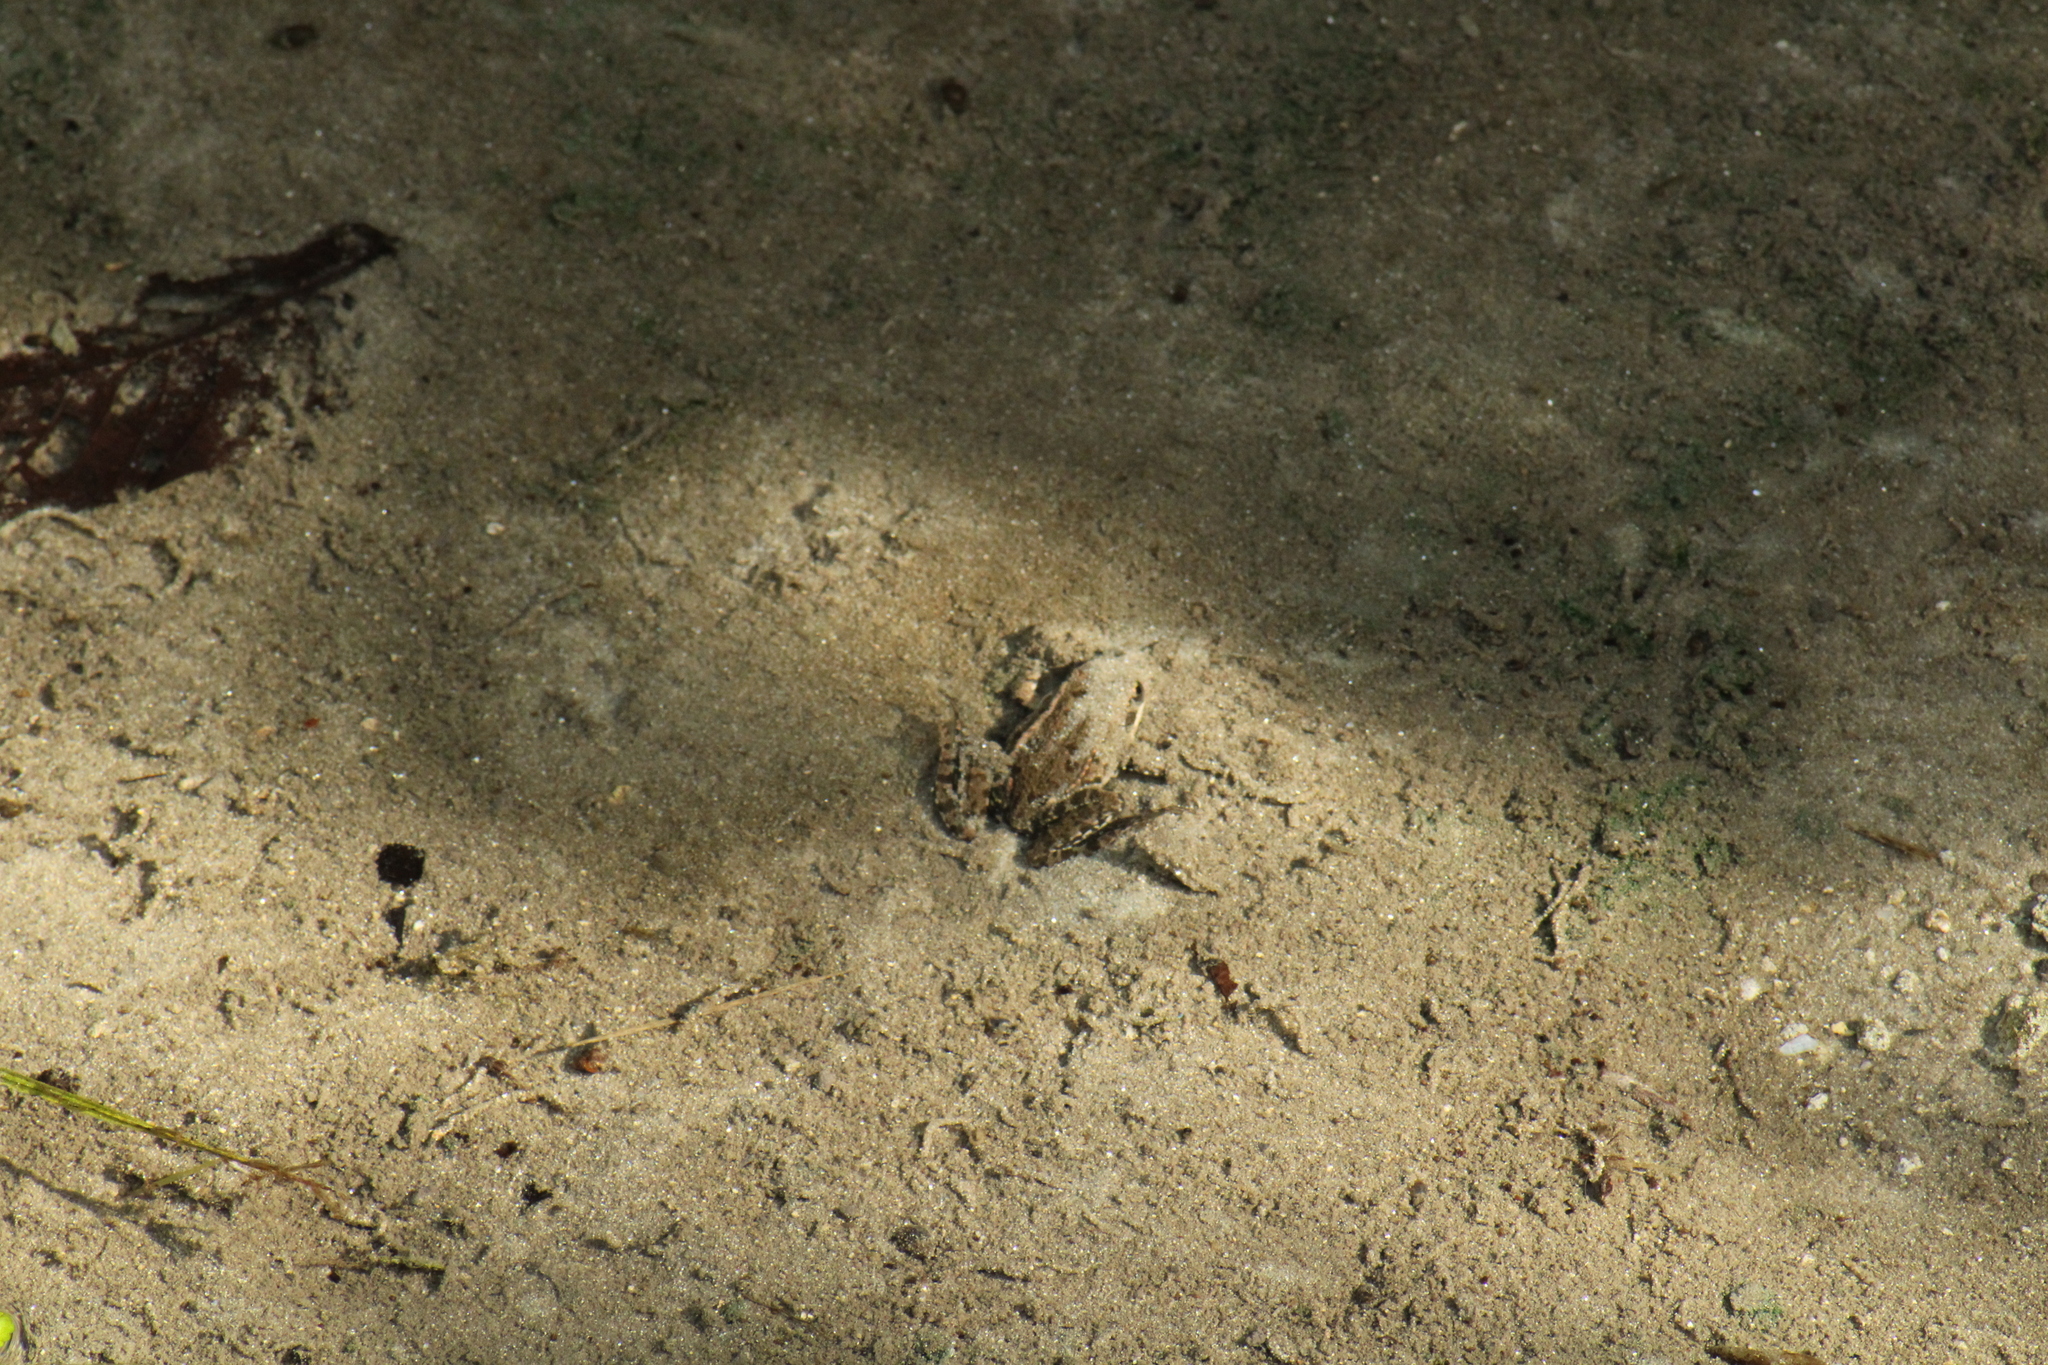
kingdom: Animalia
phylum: Chordata
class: Amphibia
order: Anura
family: Ranidae
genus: Pelophylax
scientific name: Pelophylax
